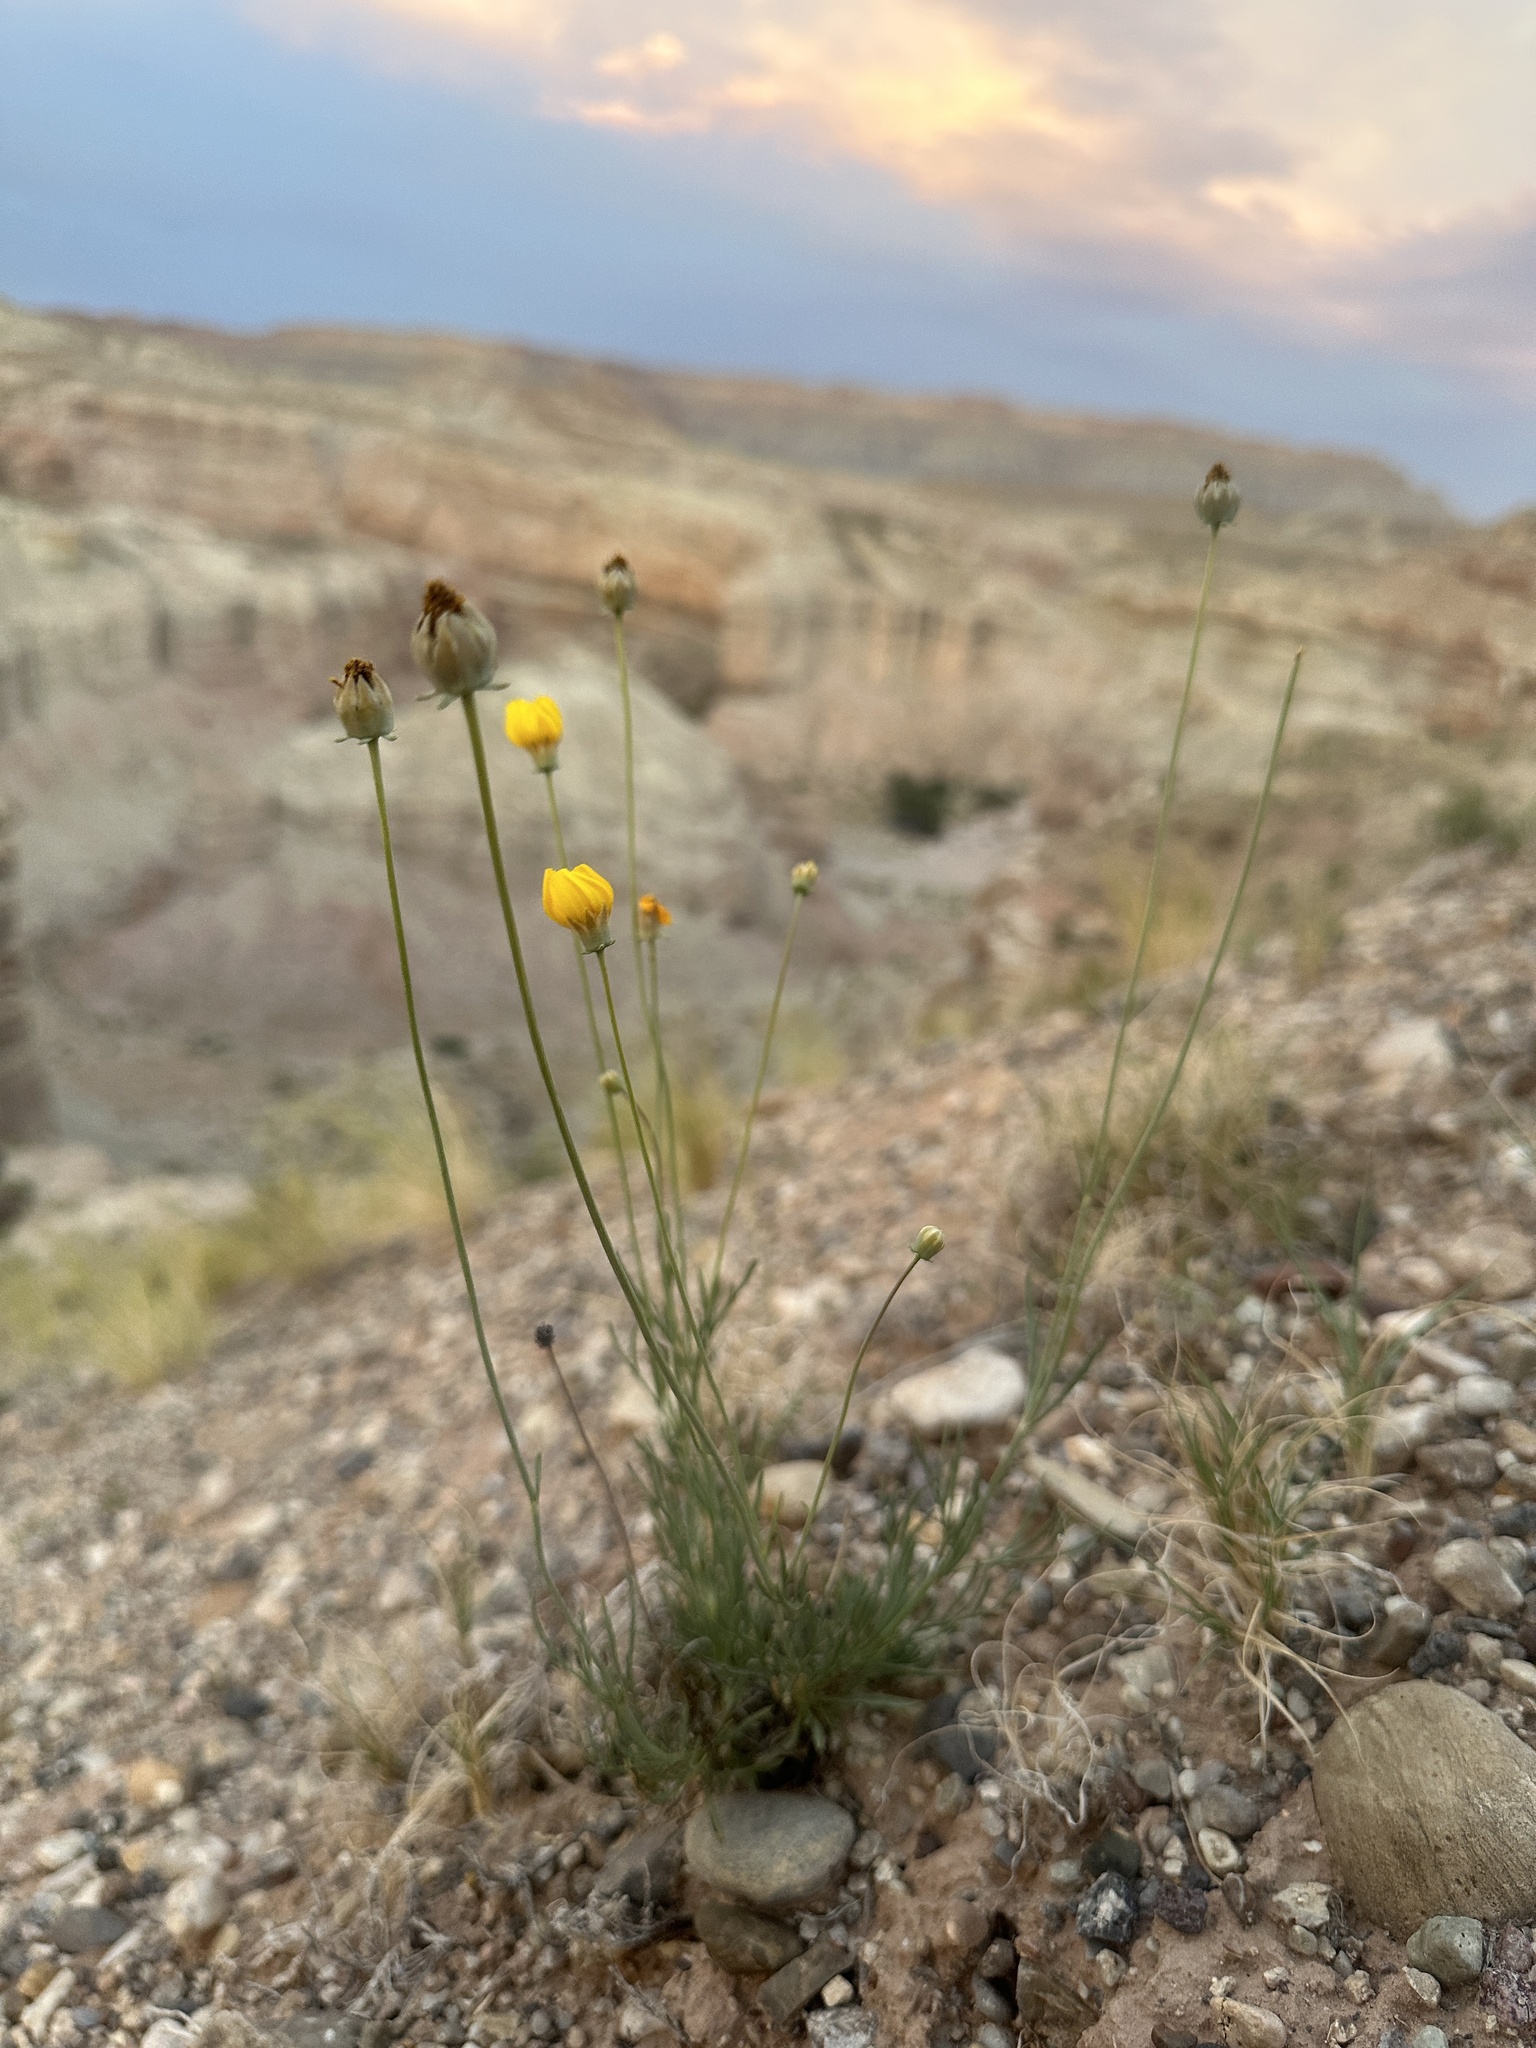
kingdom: Plantae
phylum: Tracheophyta
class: Magnoliopsida
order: Asterales
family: Asteraceae
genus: Thelesperma
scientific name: Thelesperma megapotamicum
